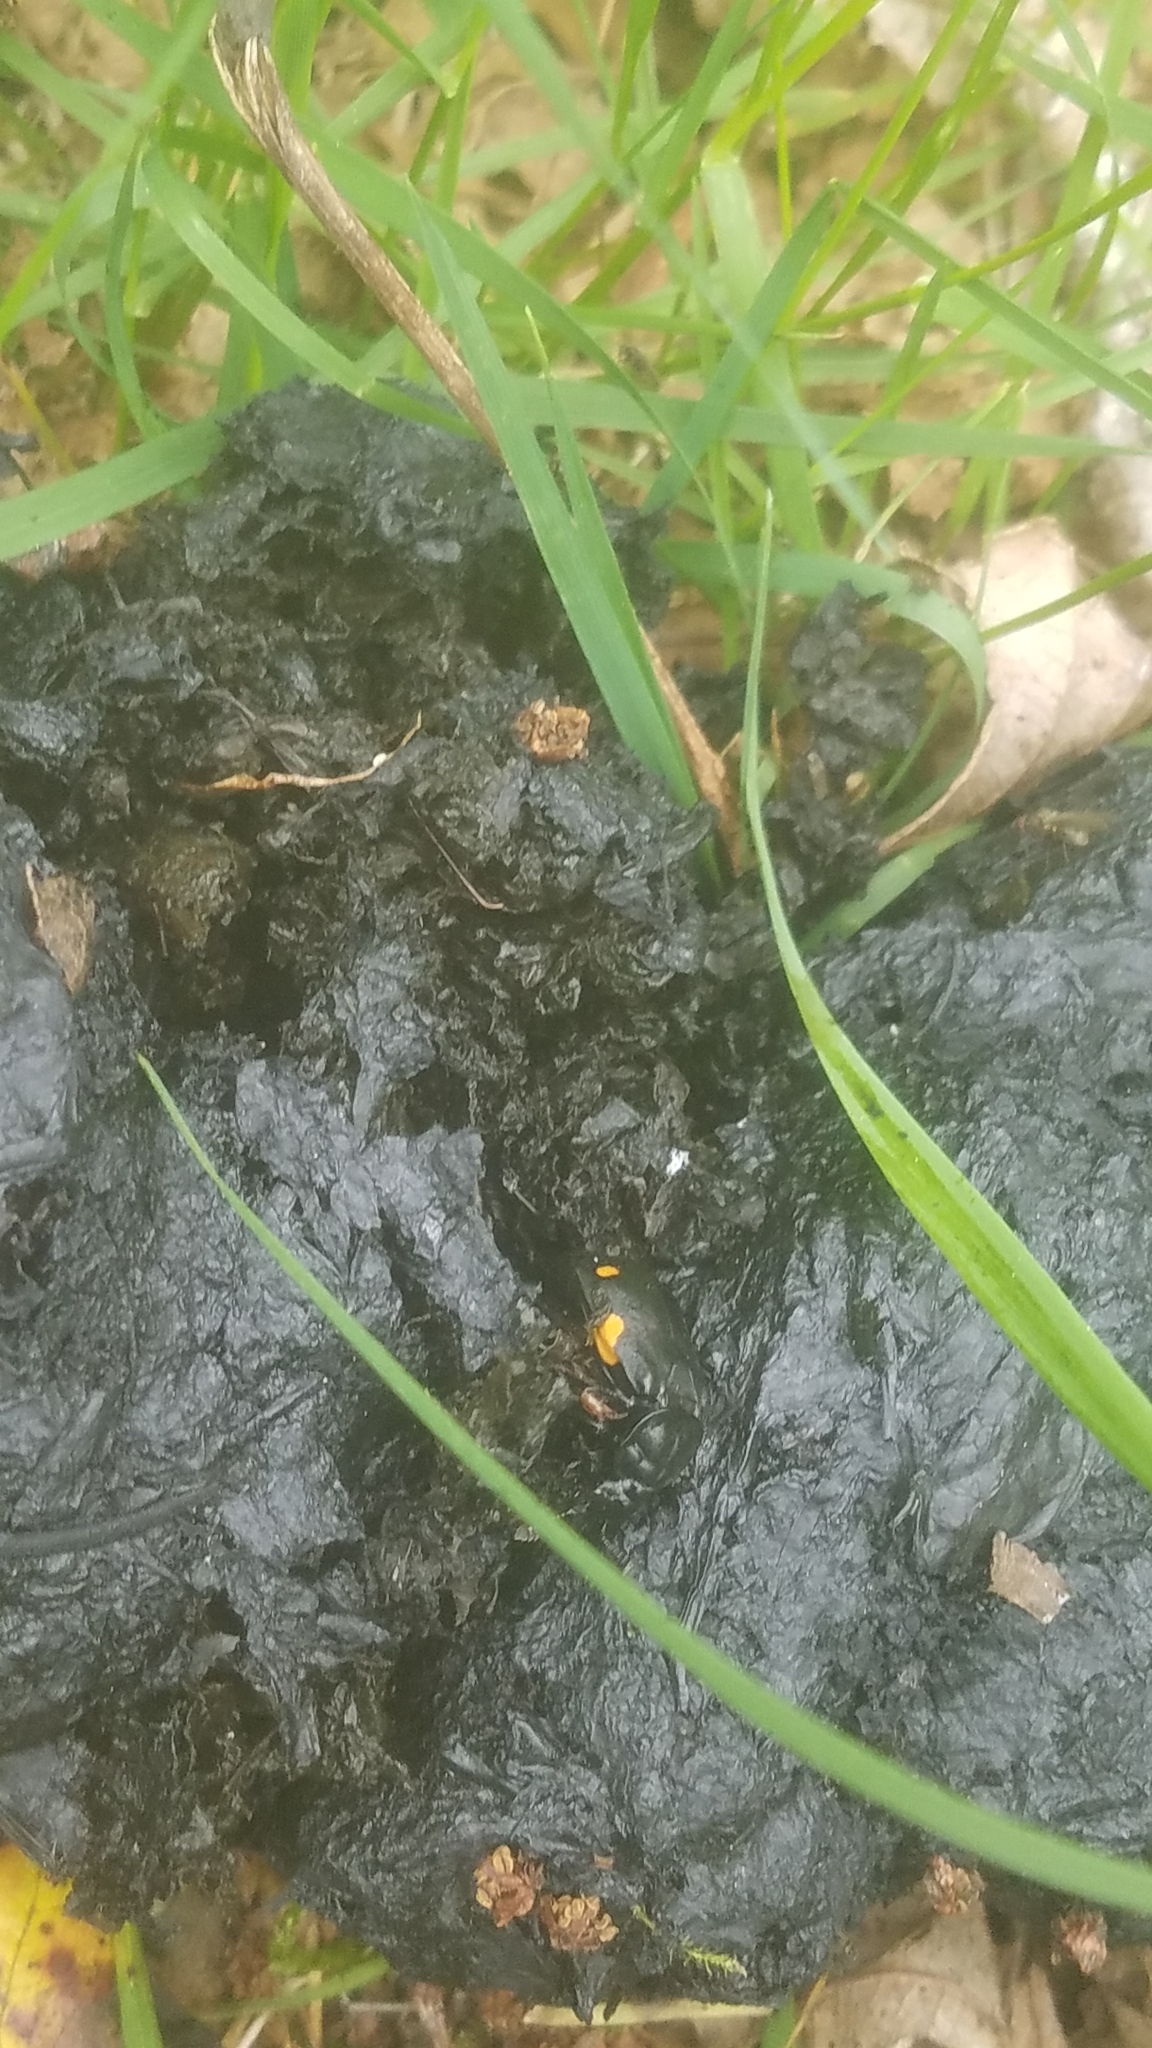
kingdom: Animalia
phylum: Arthropoda
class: Insecta
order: Coleoptera
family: Staphylinidae
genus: Nicrophorus
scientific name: Nicrophorus defodiens
